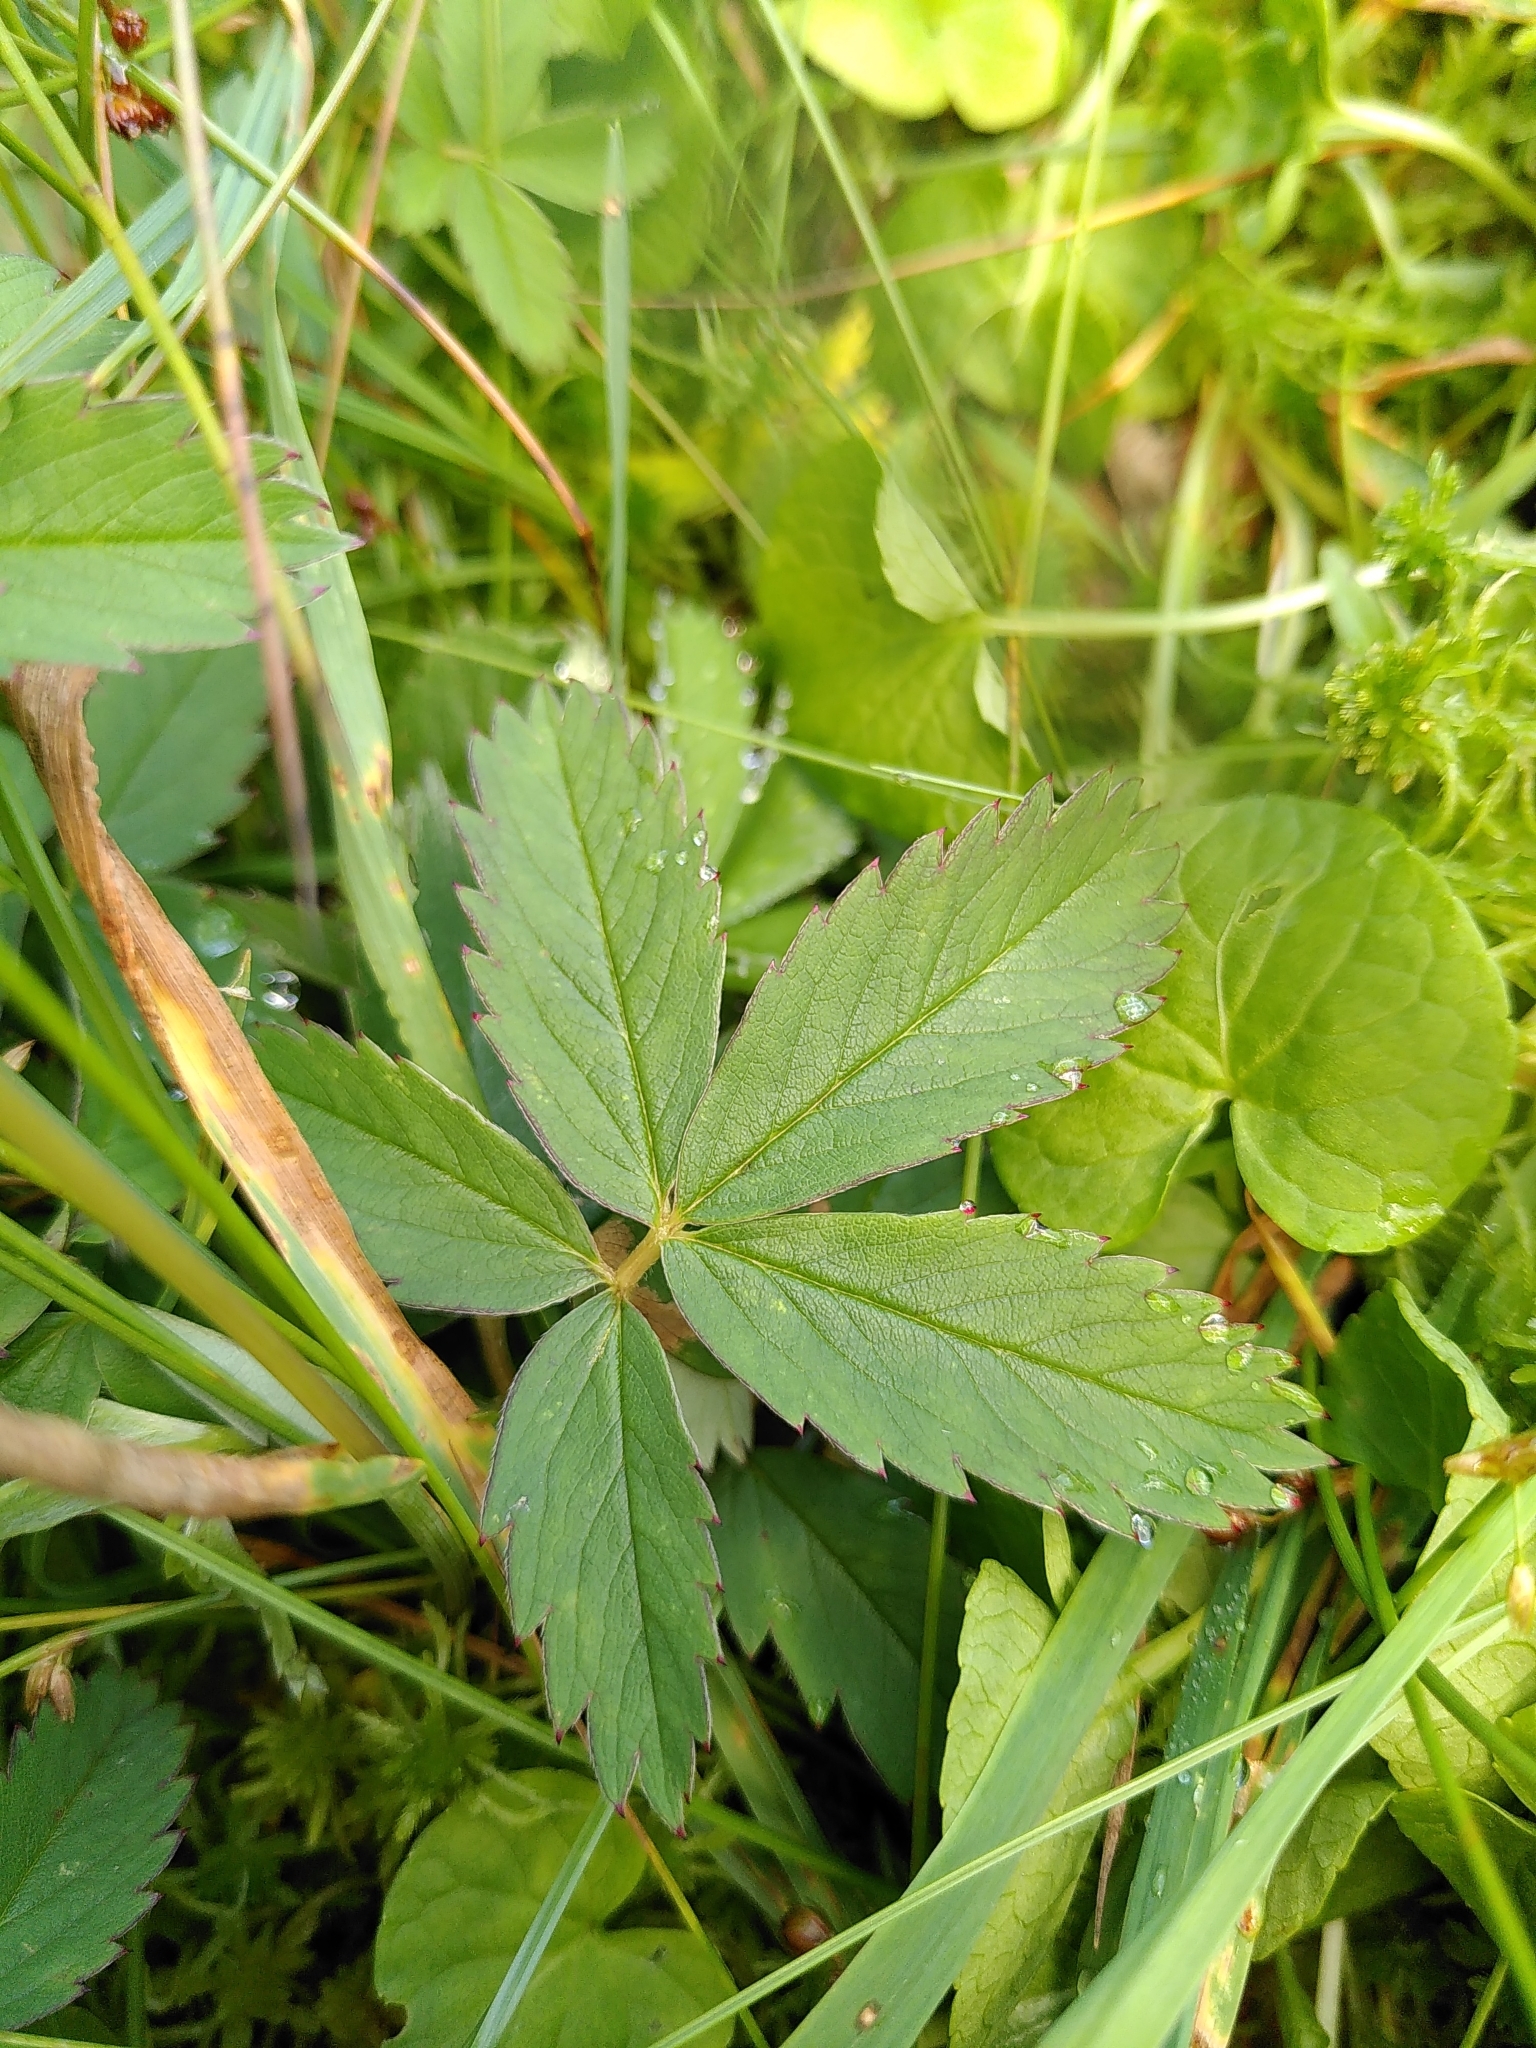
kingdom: Plantae
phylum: Tracheophyta
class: Magnoliopsida
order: Rosales
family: Rosaceae
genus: Comarum
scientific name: Comarum palustre
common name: Marsh cinquefoil
